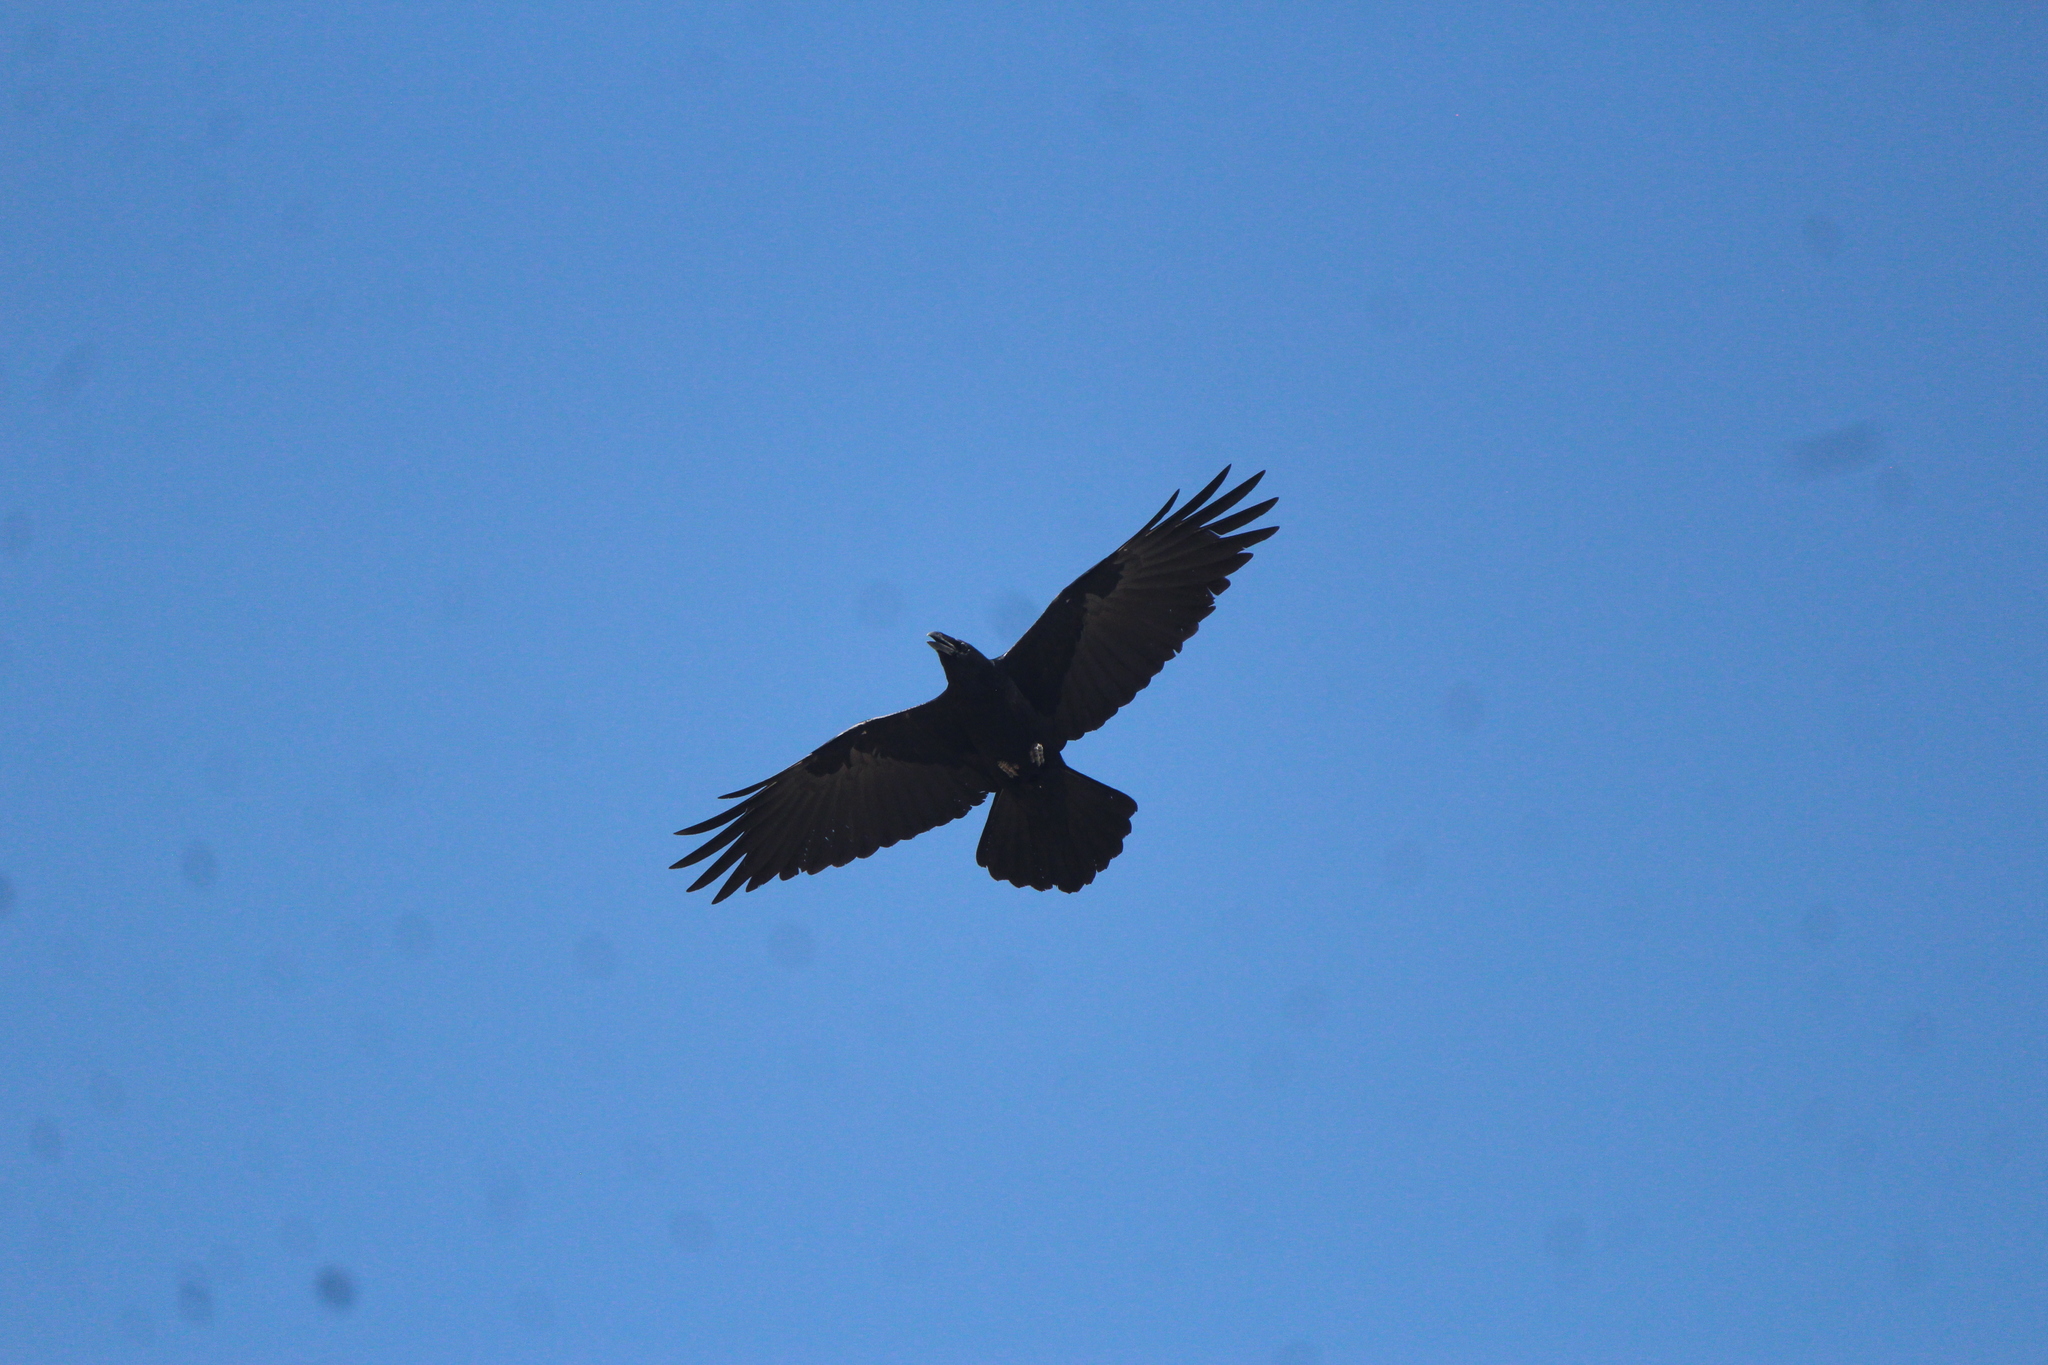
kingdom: Animalia
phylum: Chordata
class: Aves
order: Passeriformes
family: Corvidae
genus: Corvus
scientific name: Corvus corax
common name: Common raven
